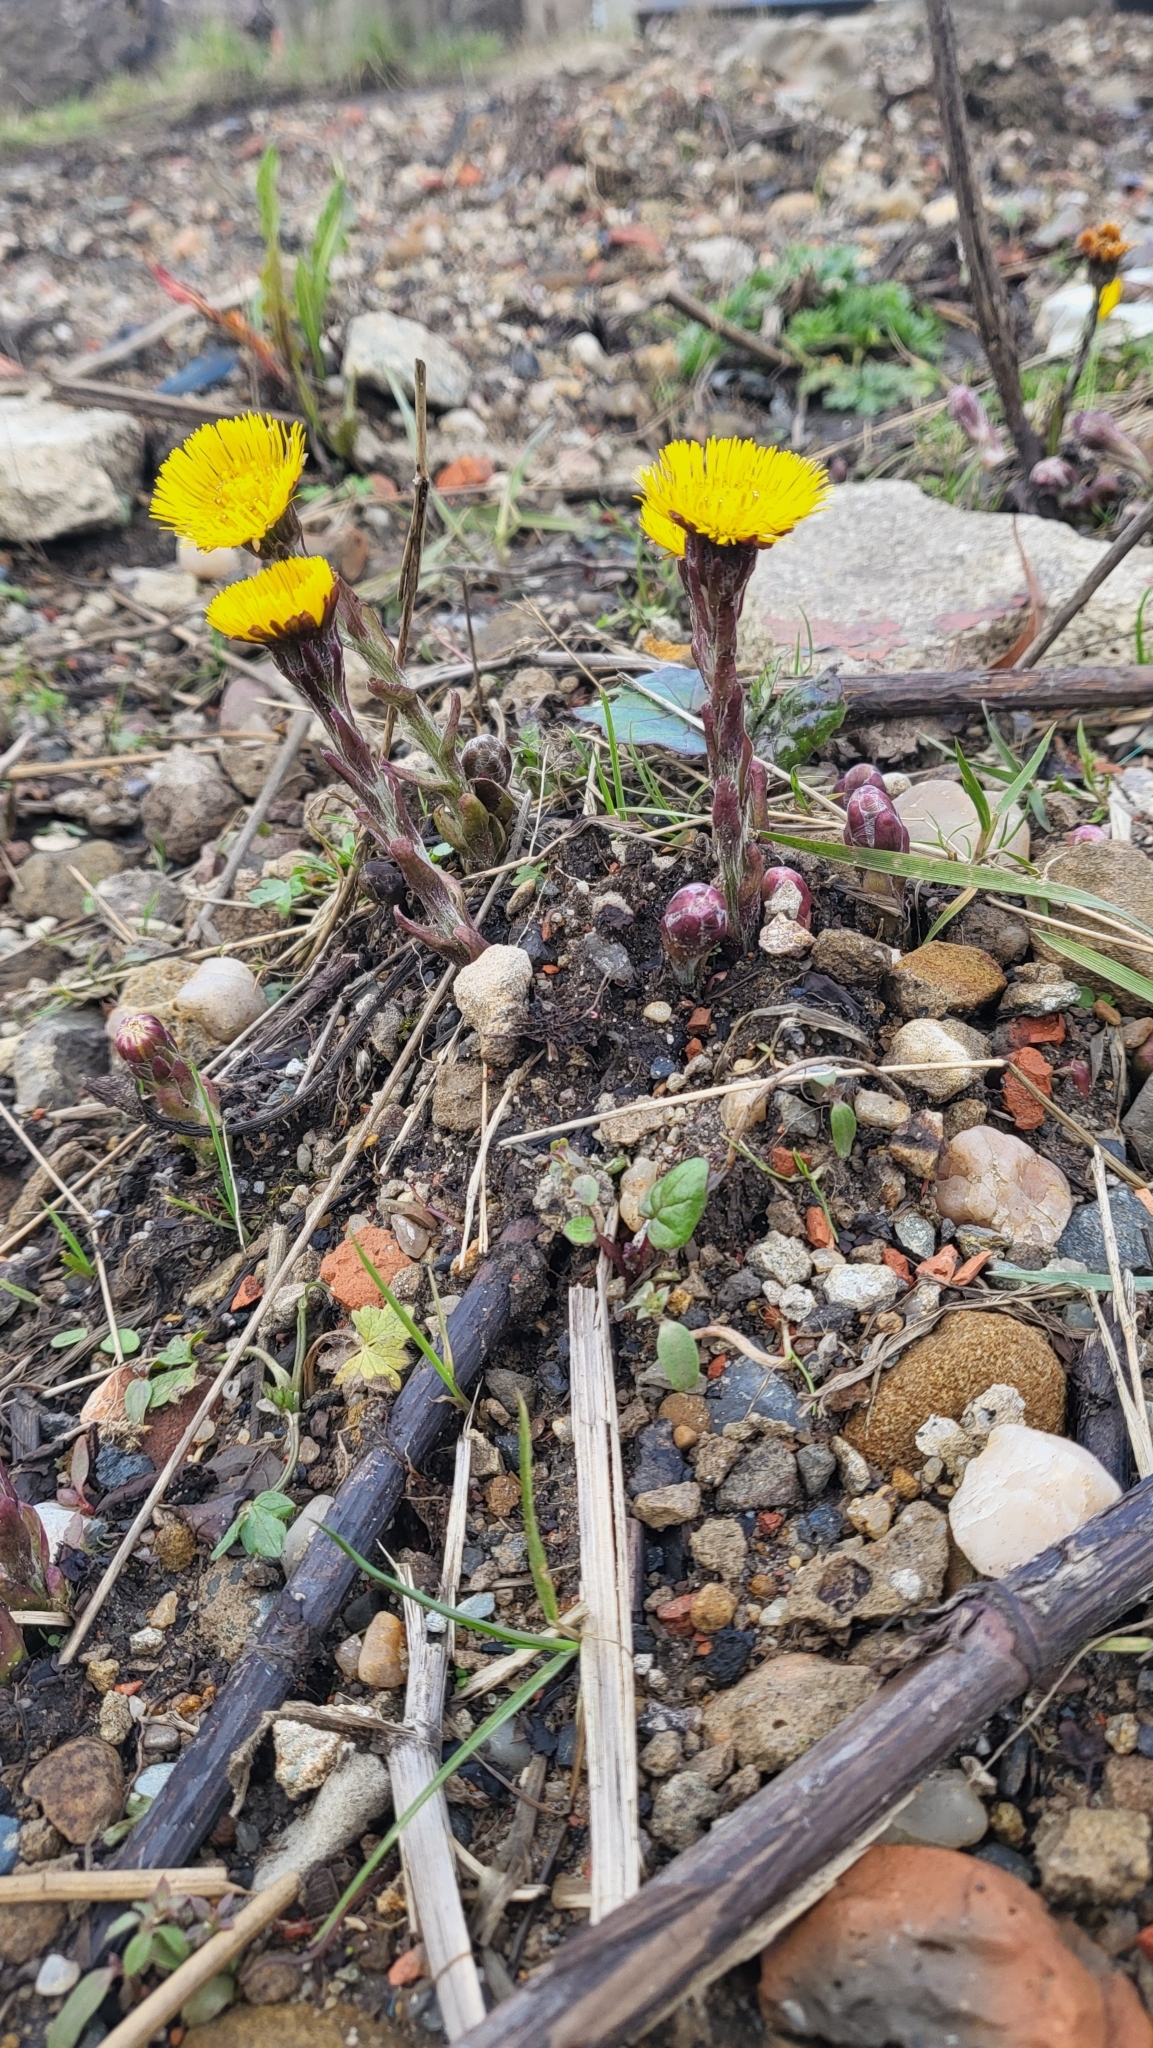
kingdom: Plantae
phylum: Tracheophyta
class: Magnoliopsida
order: Asterales
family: Asteraceae
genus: Tussilago
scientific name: Tussilago farfara
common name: Coltsfoot
